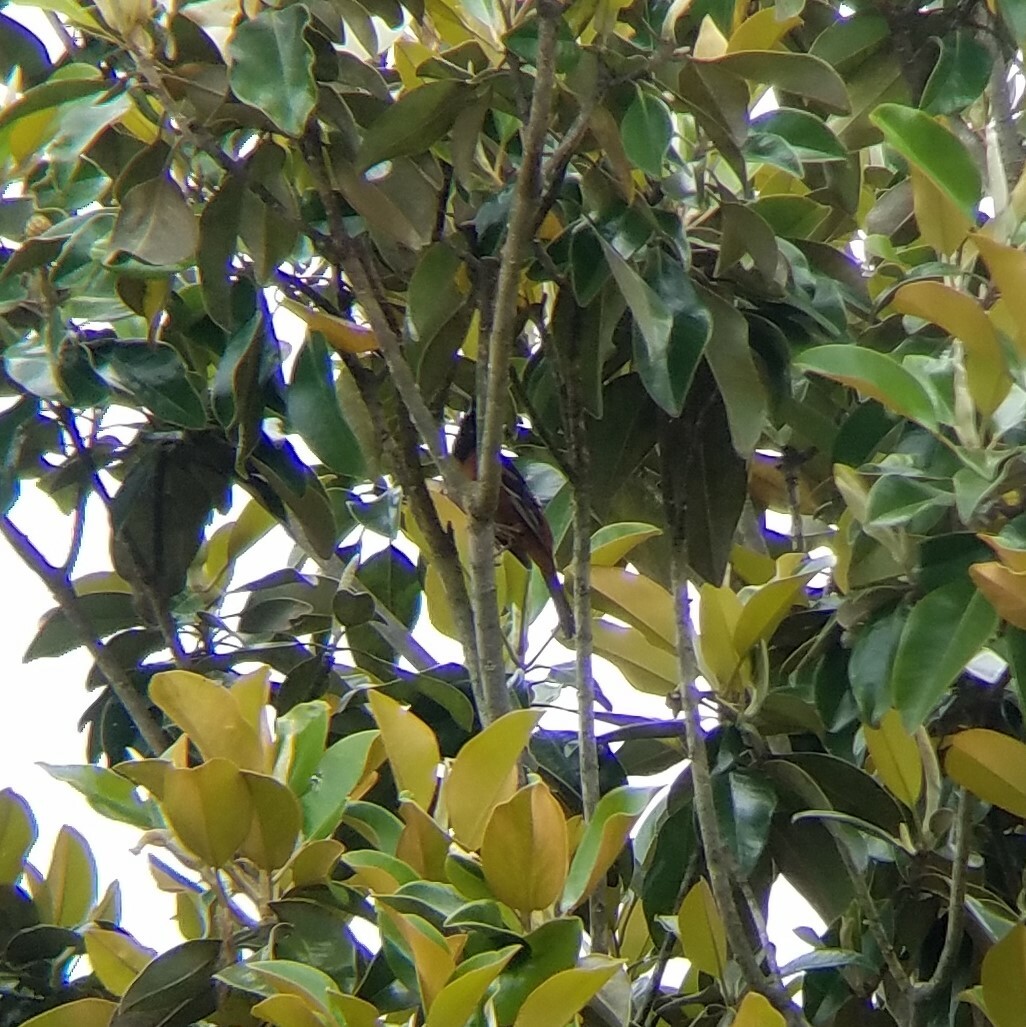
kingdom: Animalia
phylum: Chordata
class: Aves
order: Passeriformes
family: Icteridae
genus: Icterus
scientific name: Icterus spurius
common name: Orchard oriole
